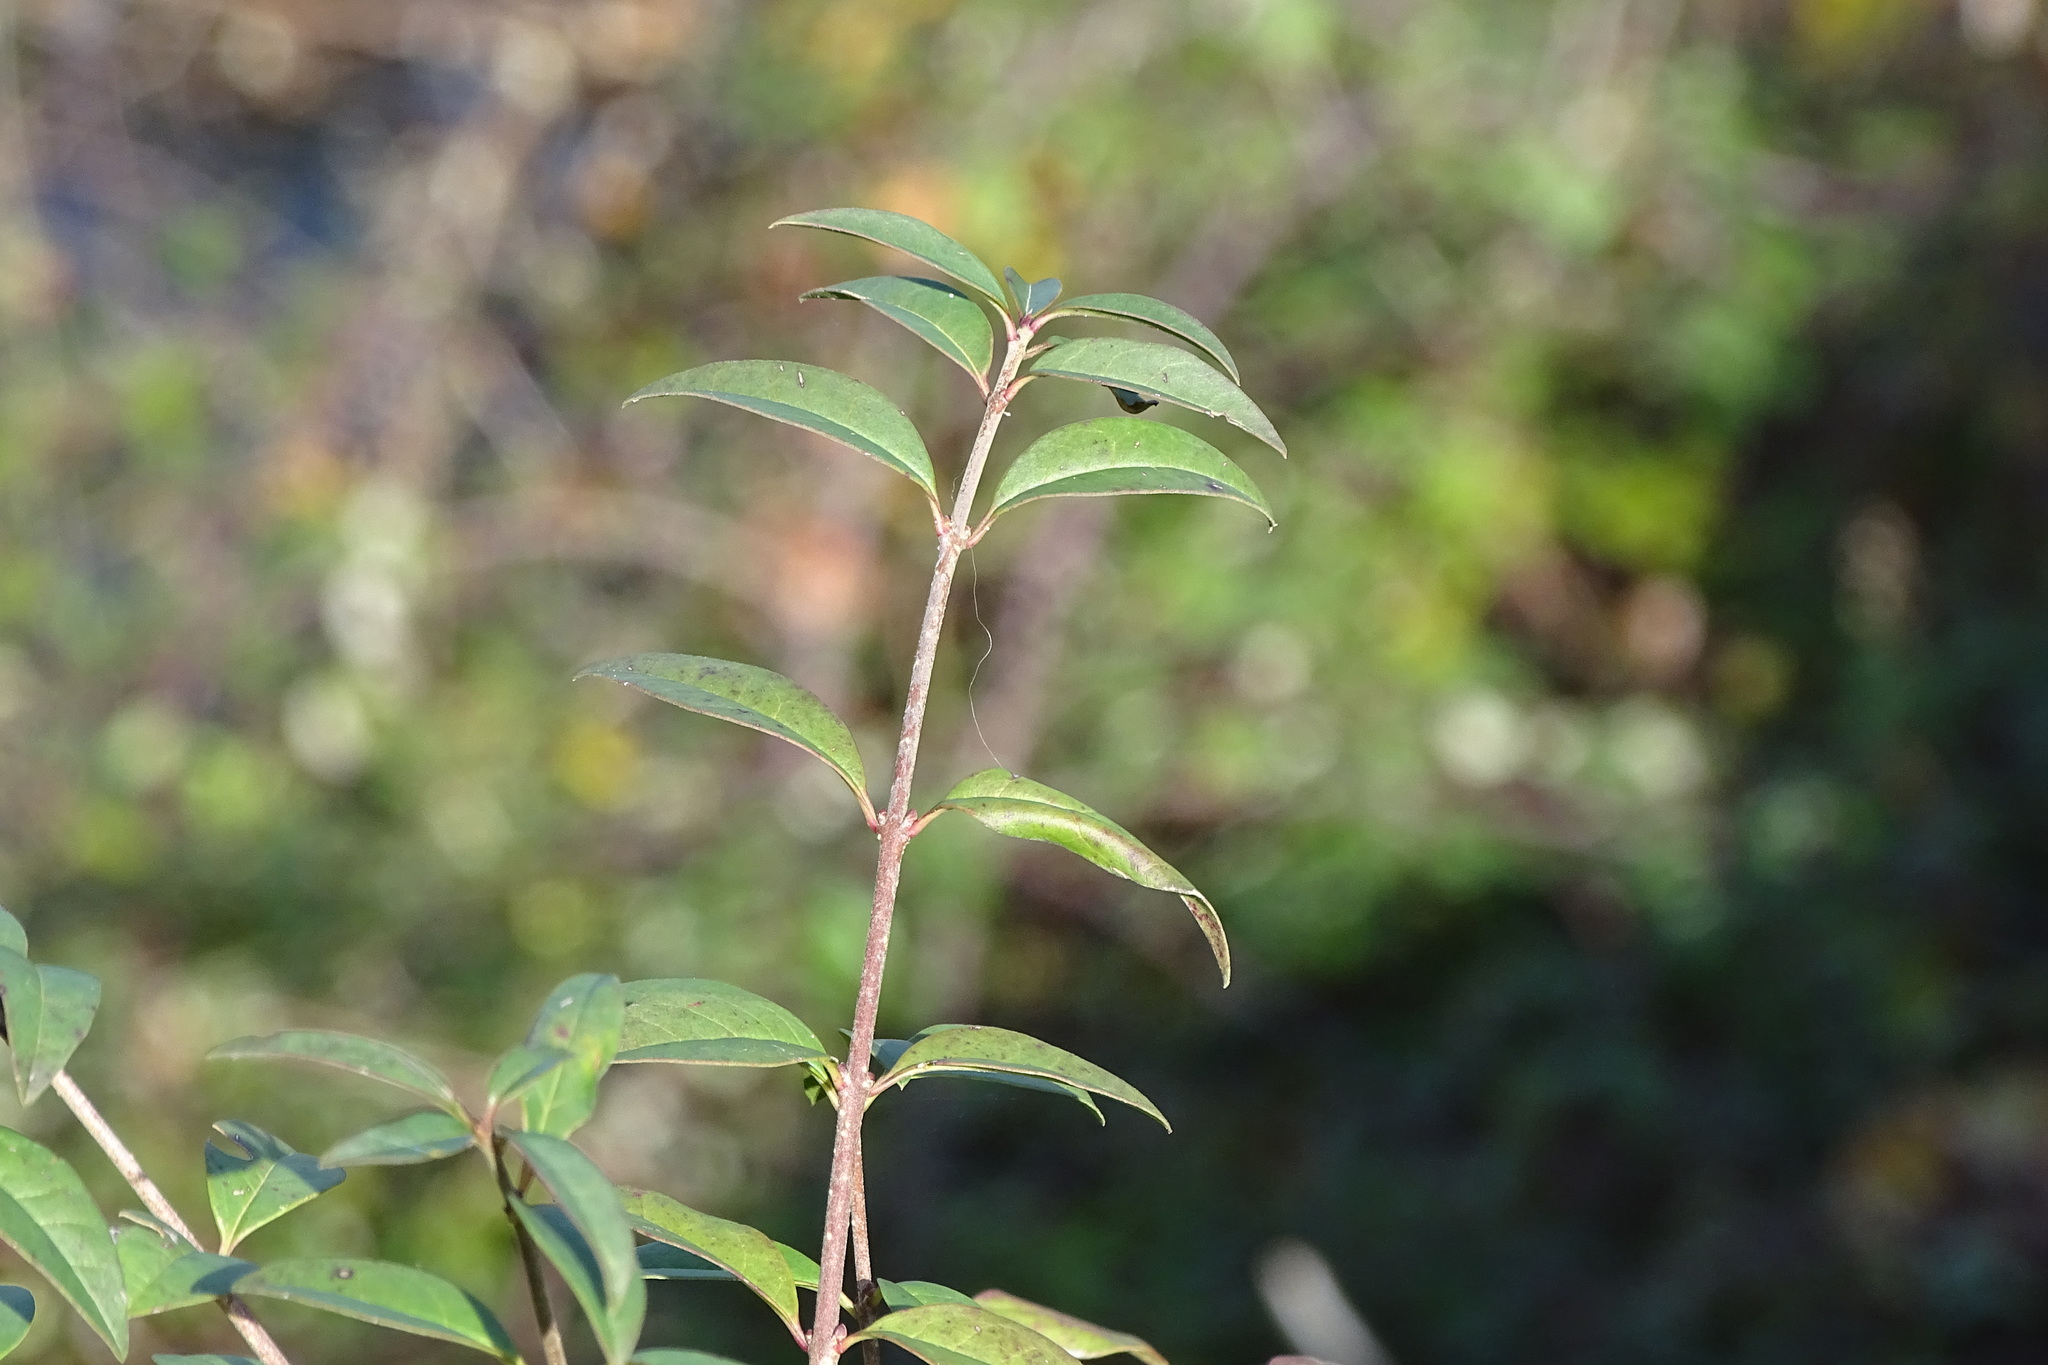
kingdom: Plantae
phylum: Tracheophyta
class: Magnoliopsida
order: Lamiales
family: Oleaceae
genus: Ligustrum
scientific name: Ligustrum vulgare
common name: Wild privet
